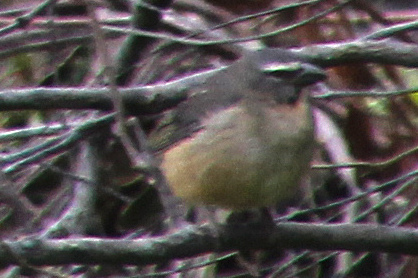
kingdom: Animalia
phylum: Chordata
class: Aves
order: Passeriformes
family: Thraupidae
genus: Saltator
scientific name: Saltator coerulescens
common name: Grayish saltator
